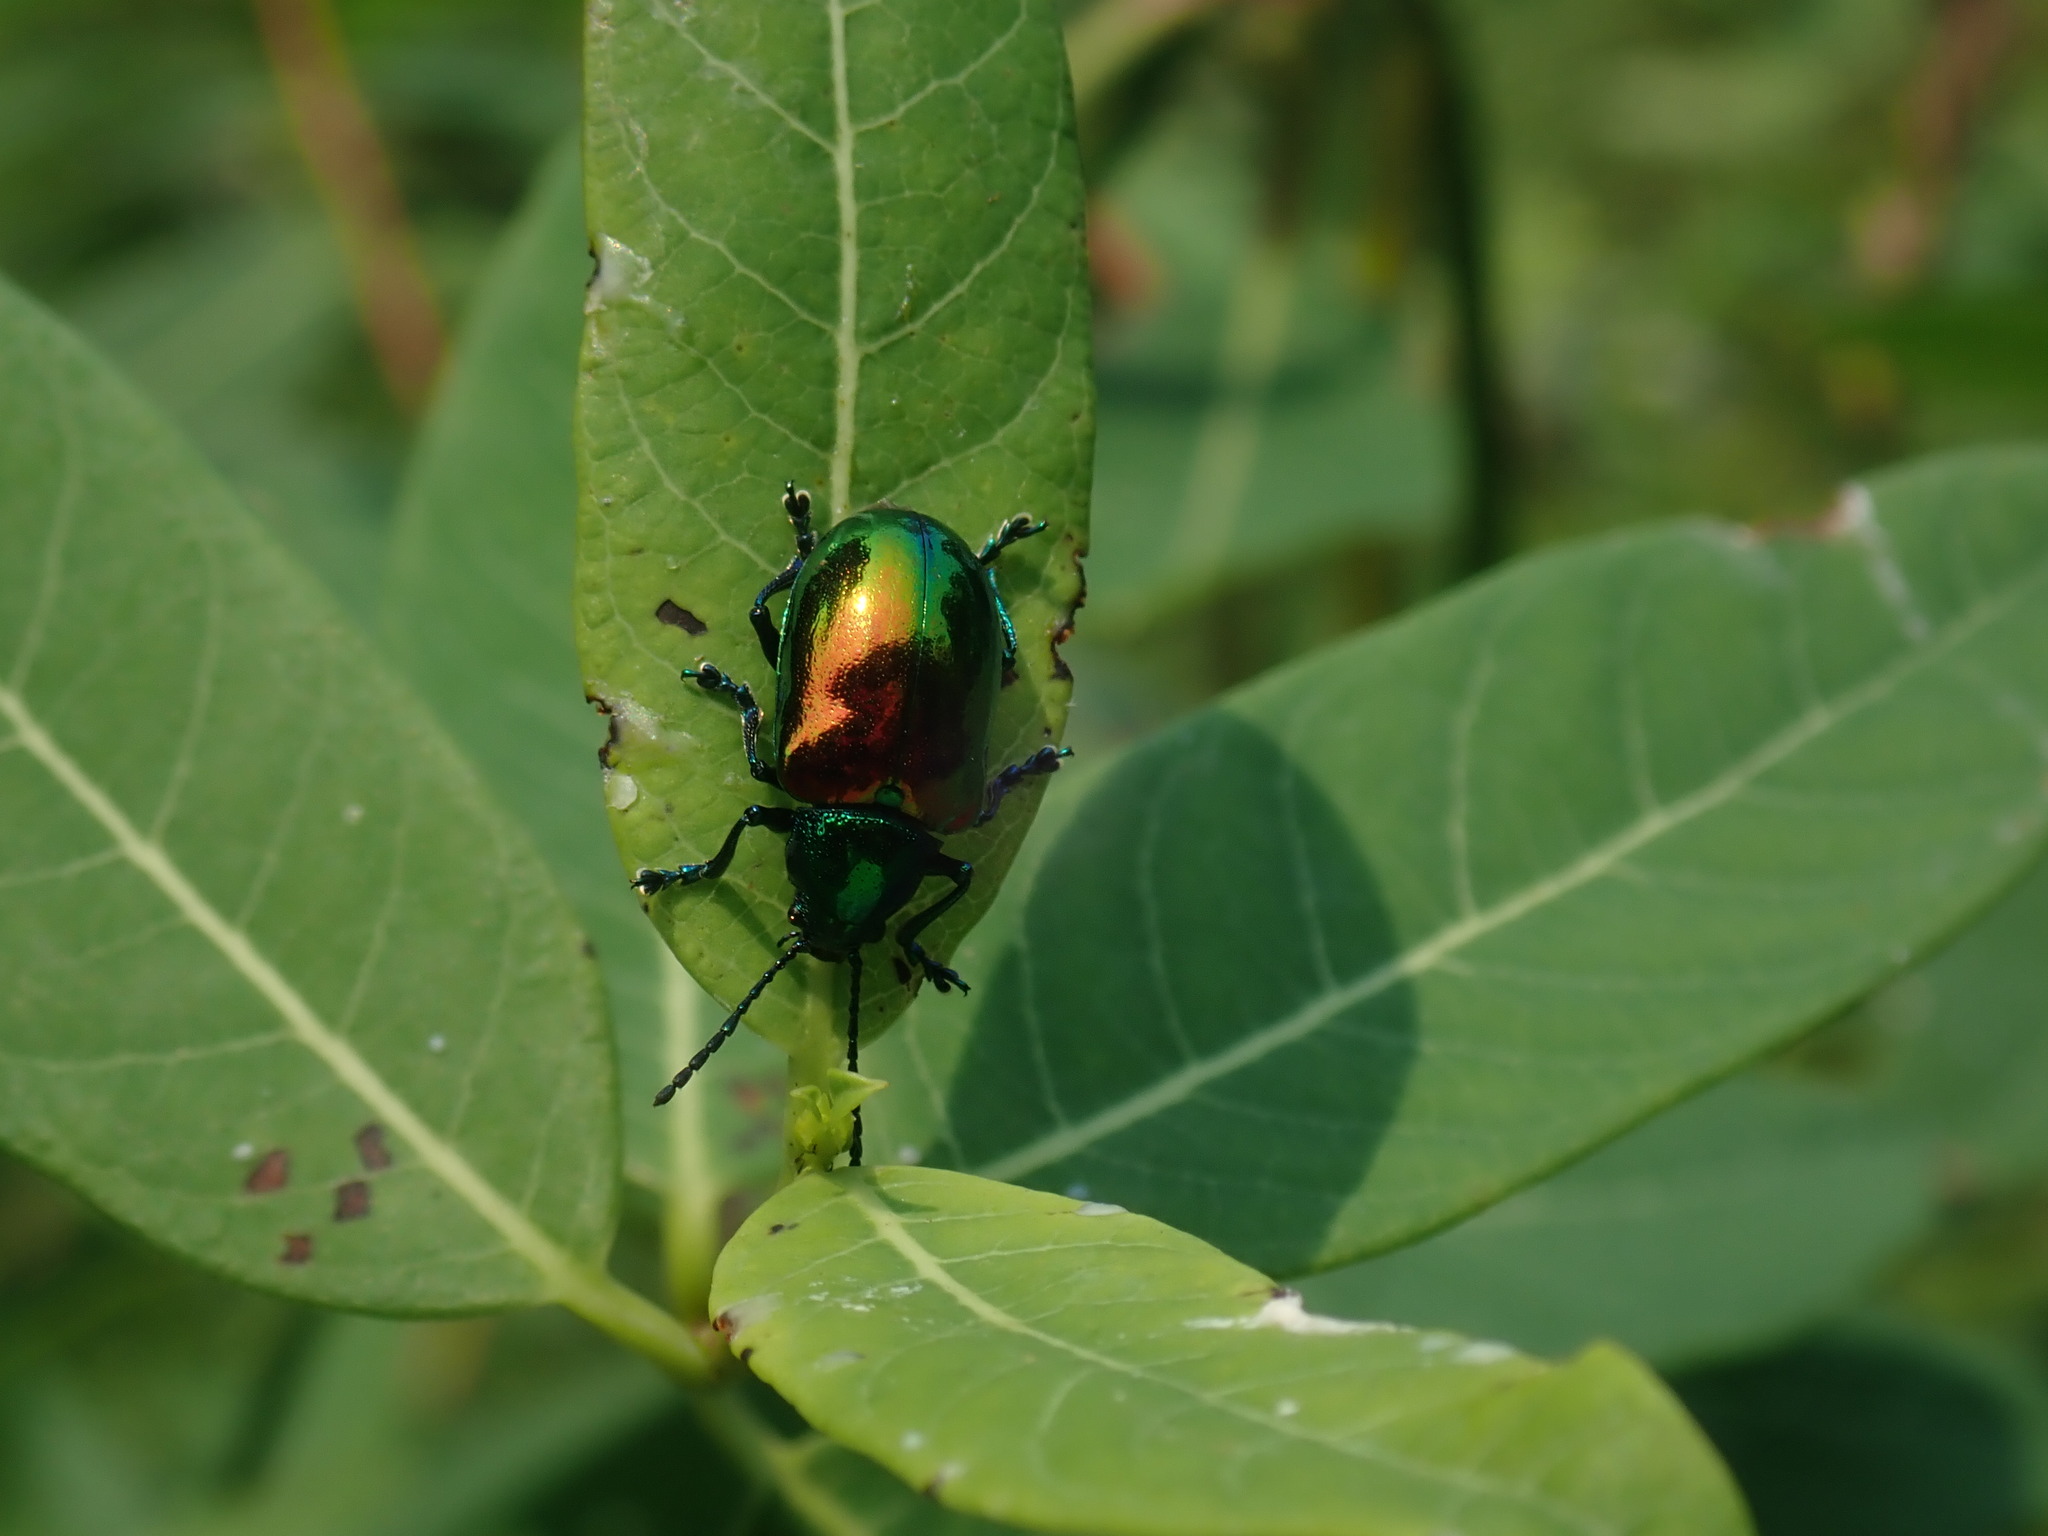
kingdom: Animalia
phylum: Arthropoda
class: Insecta
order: Coleoptera
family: Chrysomelidae
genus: Chrysochus
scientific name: Chrysochus auratus
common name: Dogbane leaf beetle
